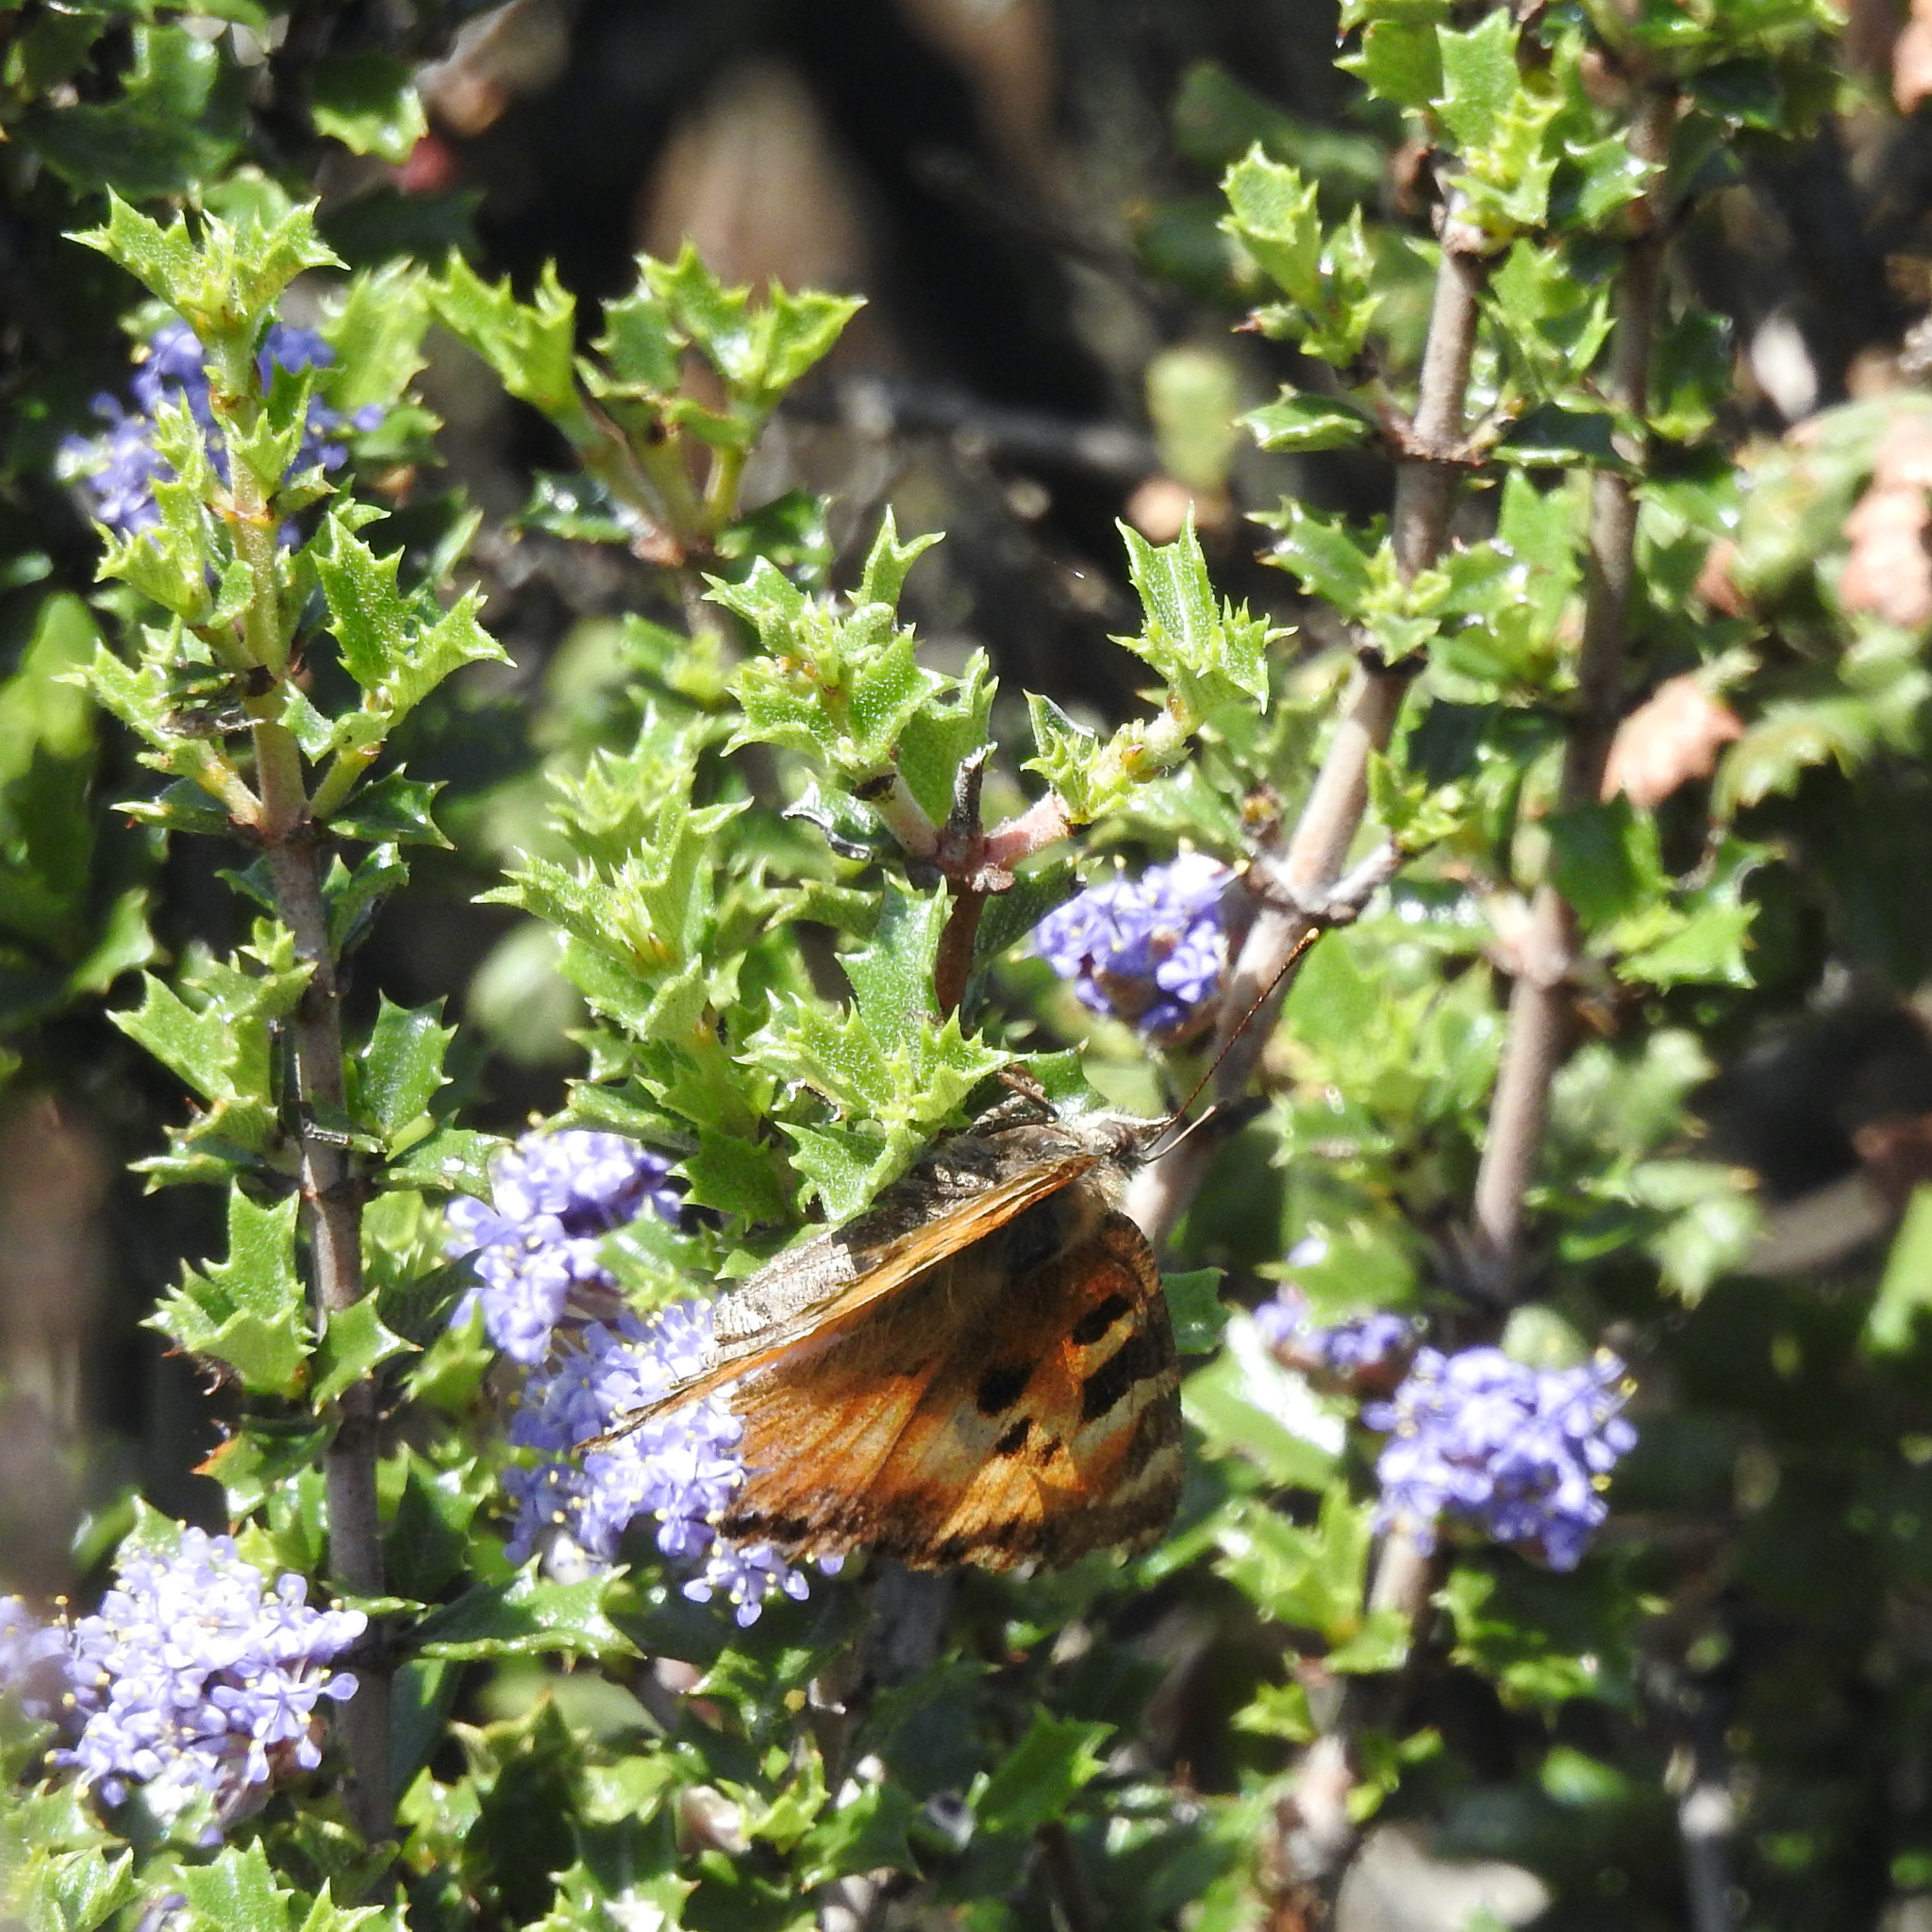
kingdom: Animalia
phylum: Arthropoda
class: Insecta
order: Lepidoptera
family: Nymphalidae
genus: Nymphalis
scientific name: Nymphalis californica
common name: California tortoiseshell
